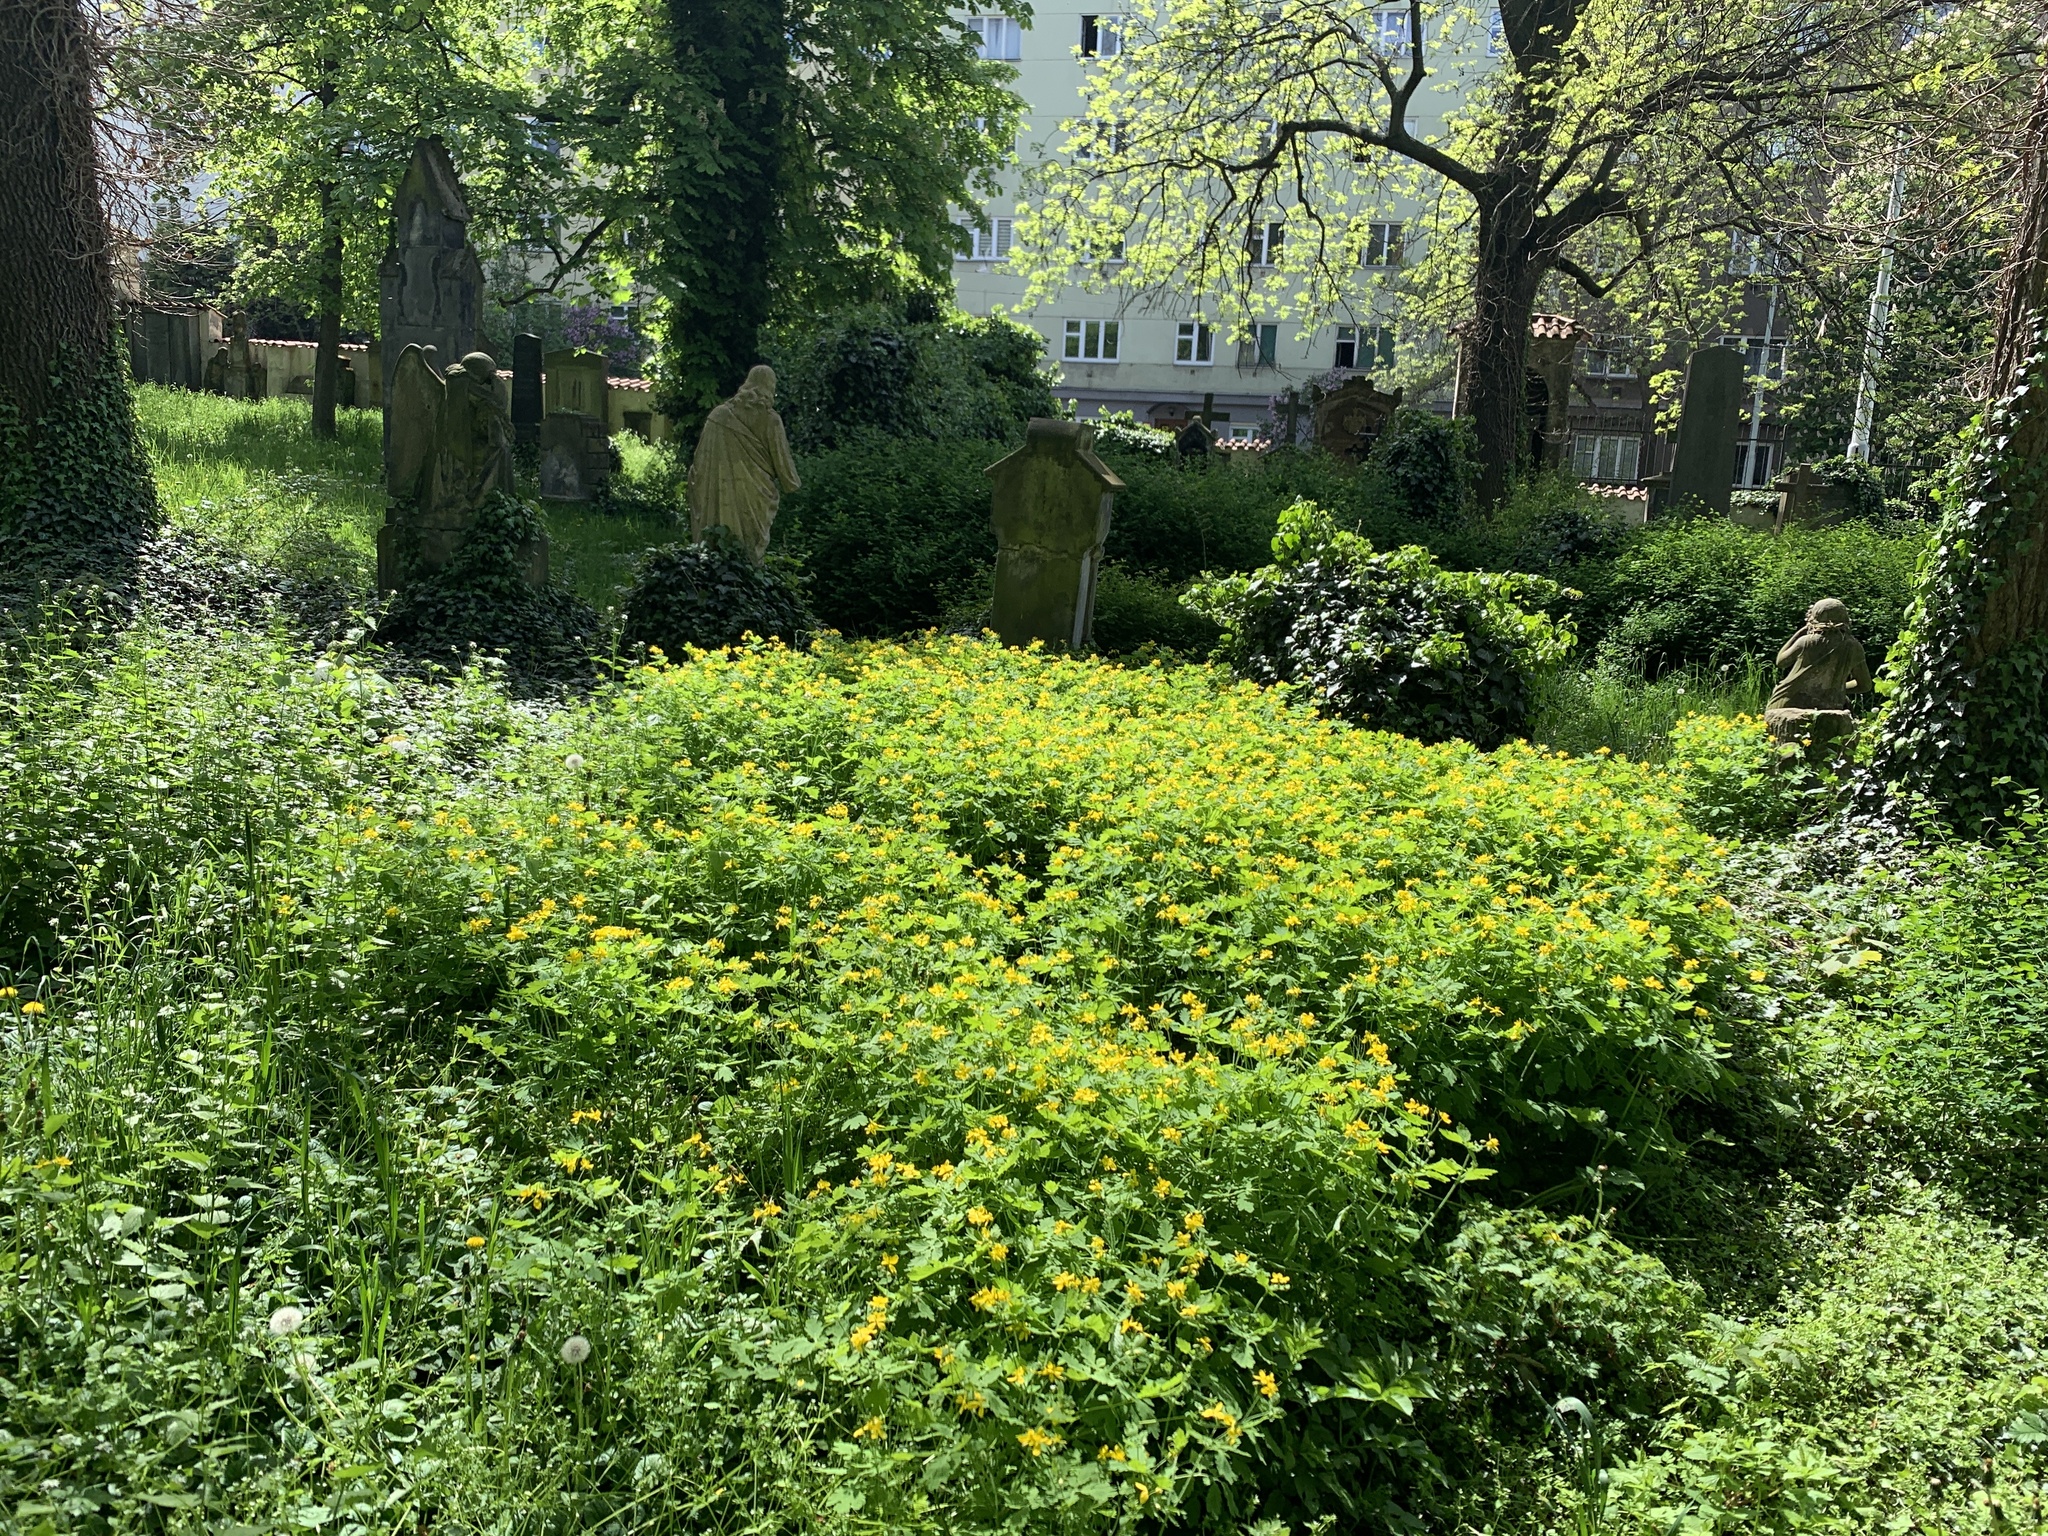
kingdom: Plantae
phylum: Tracheophyta
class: Magnoliopsida
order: Ranunculales
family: Papaveraceae
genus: Chelidonium
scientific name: Chelidonium majus
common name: Greater celandine
